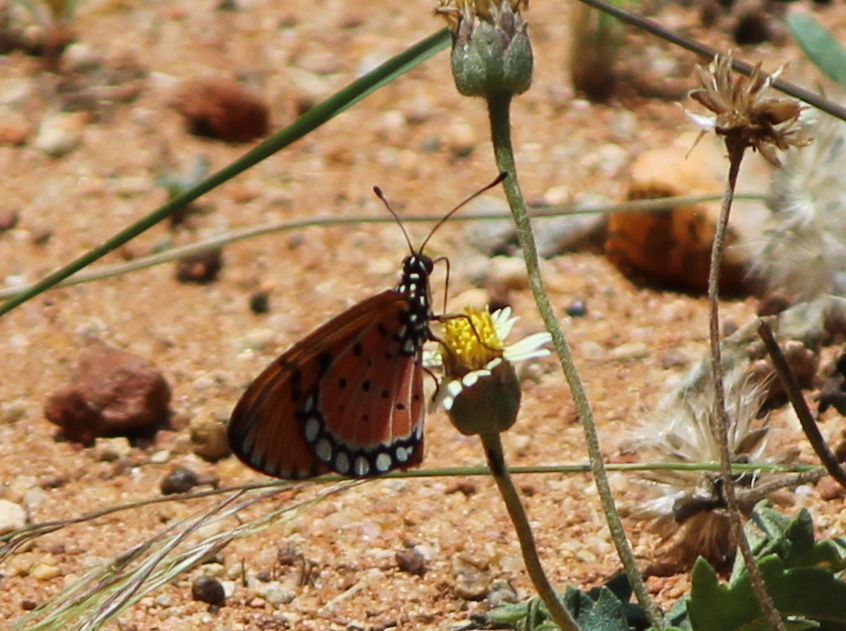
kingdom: Animalia
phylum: Arthropoda
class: Insecta
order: Lepidoptera
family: Nymphalidae
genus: Acraea
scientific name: Acraea terpsicore
